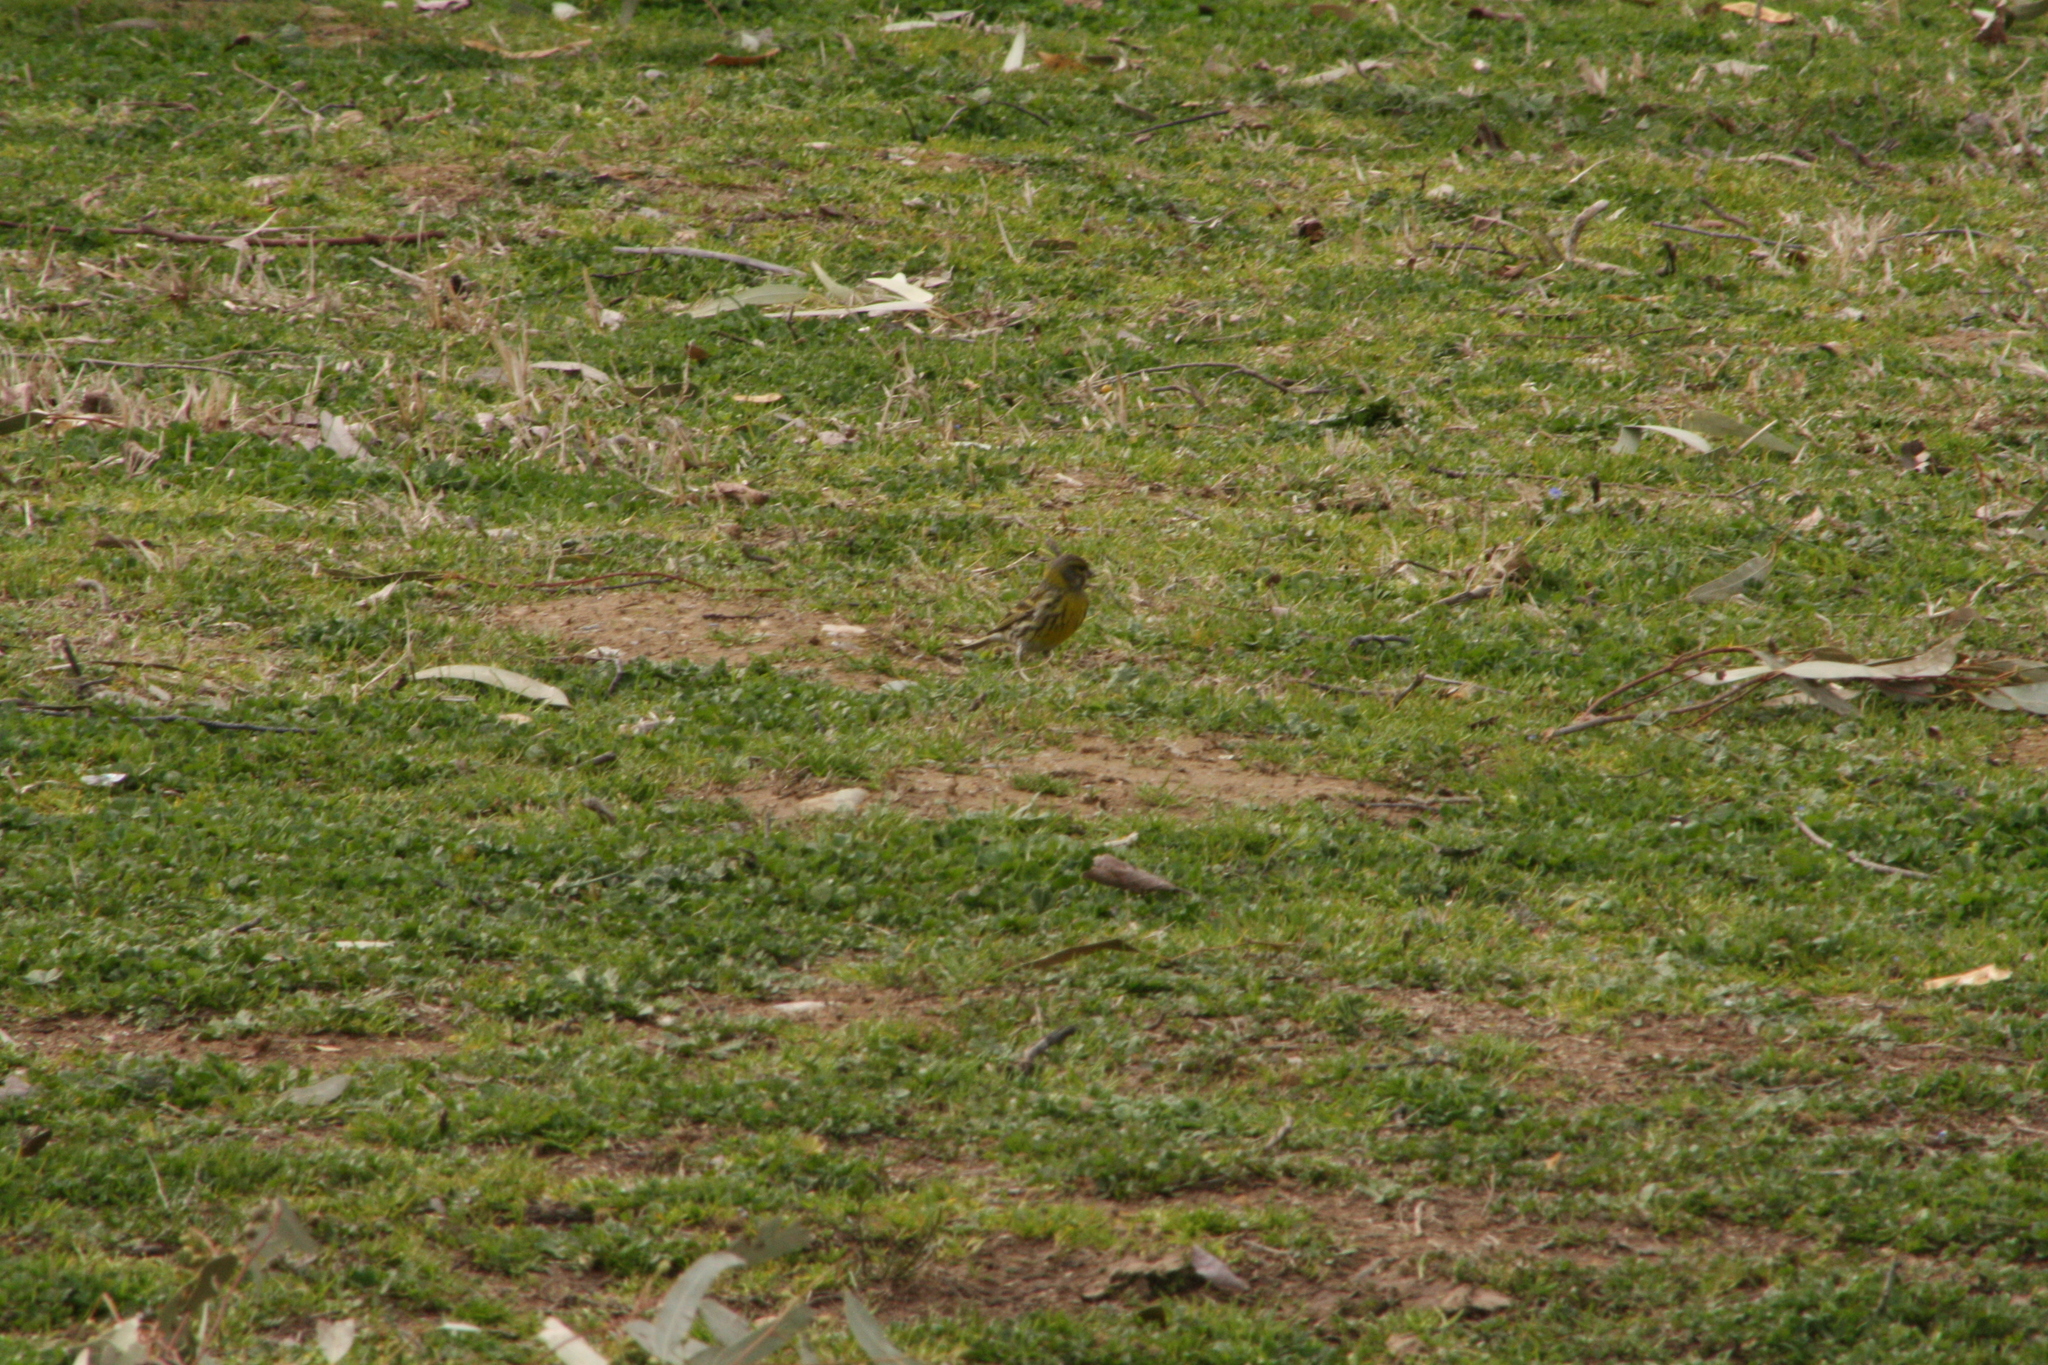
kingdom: Animalia
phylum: Chordata
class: Aves
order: Passeriformes
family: Fringillidae
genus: Serinus
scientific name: Serinus serinus
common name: European serin
